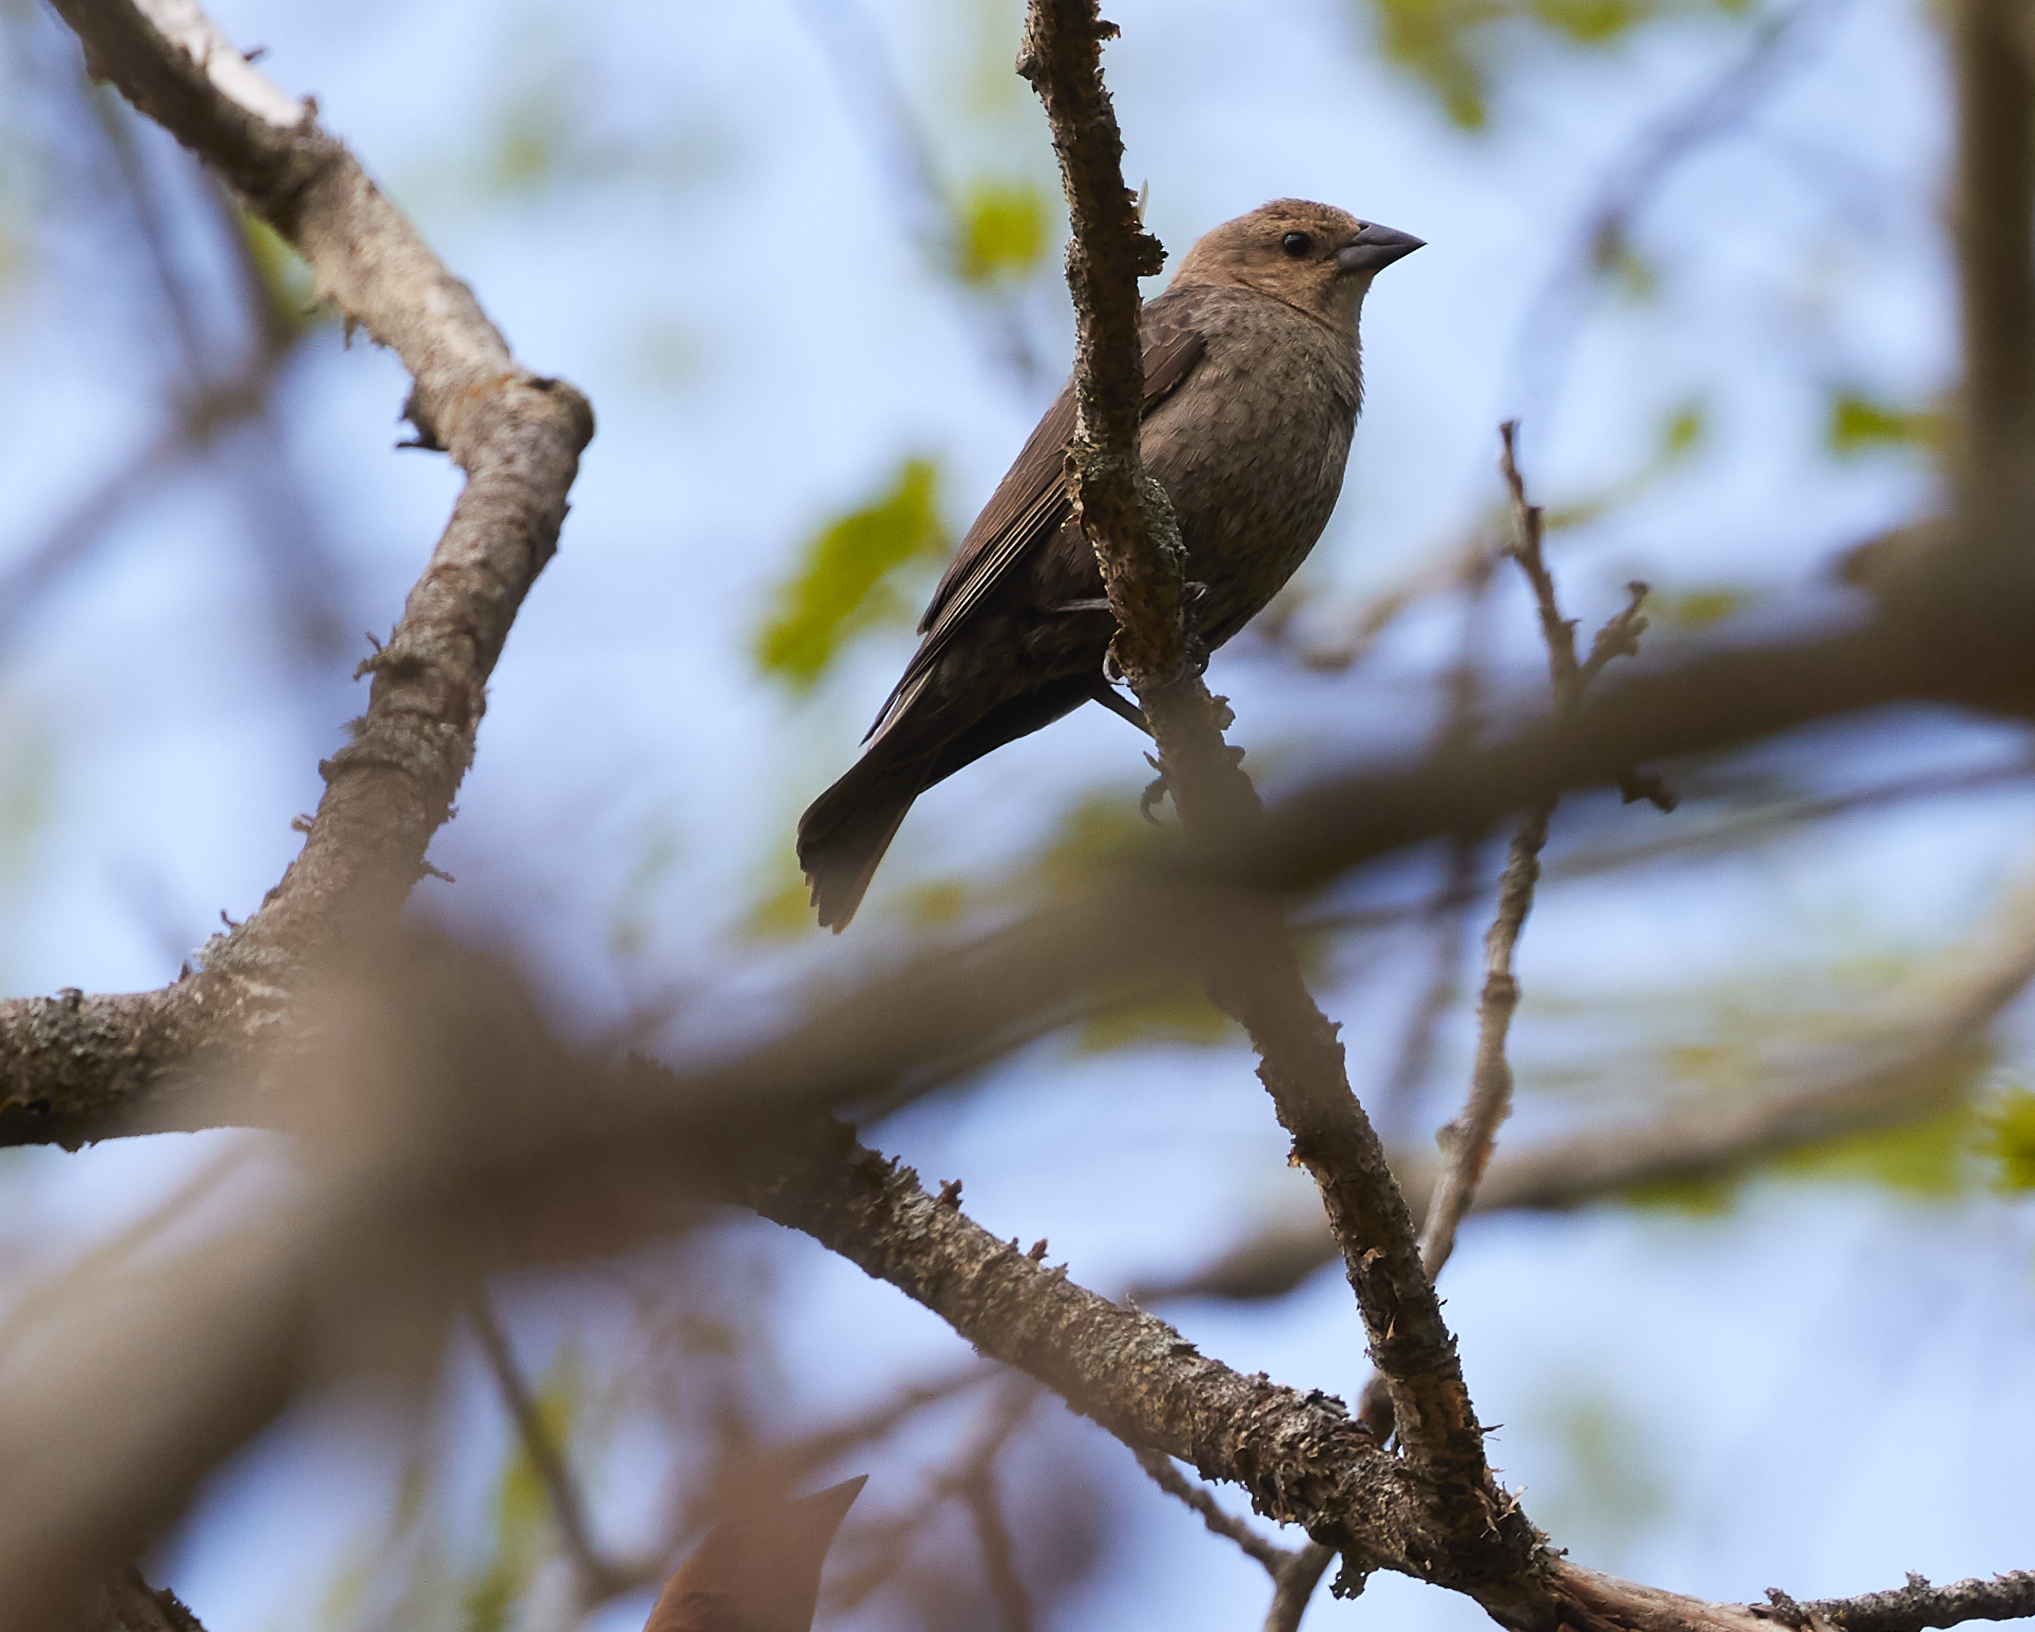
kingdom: Animalia
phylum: Chordata
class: Aves
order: Passeriformes
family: Icteridae
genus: Molothrus
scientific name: Molothrus ater
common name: Brown-headed cowbird
